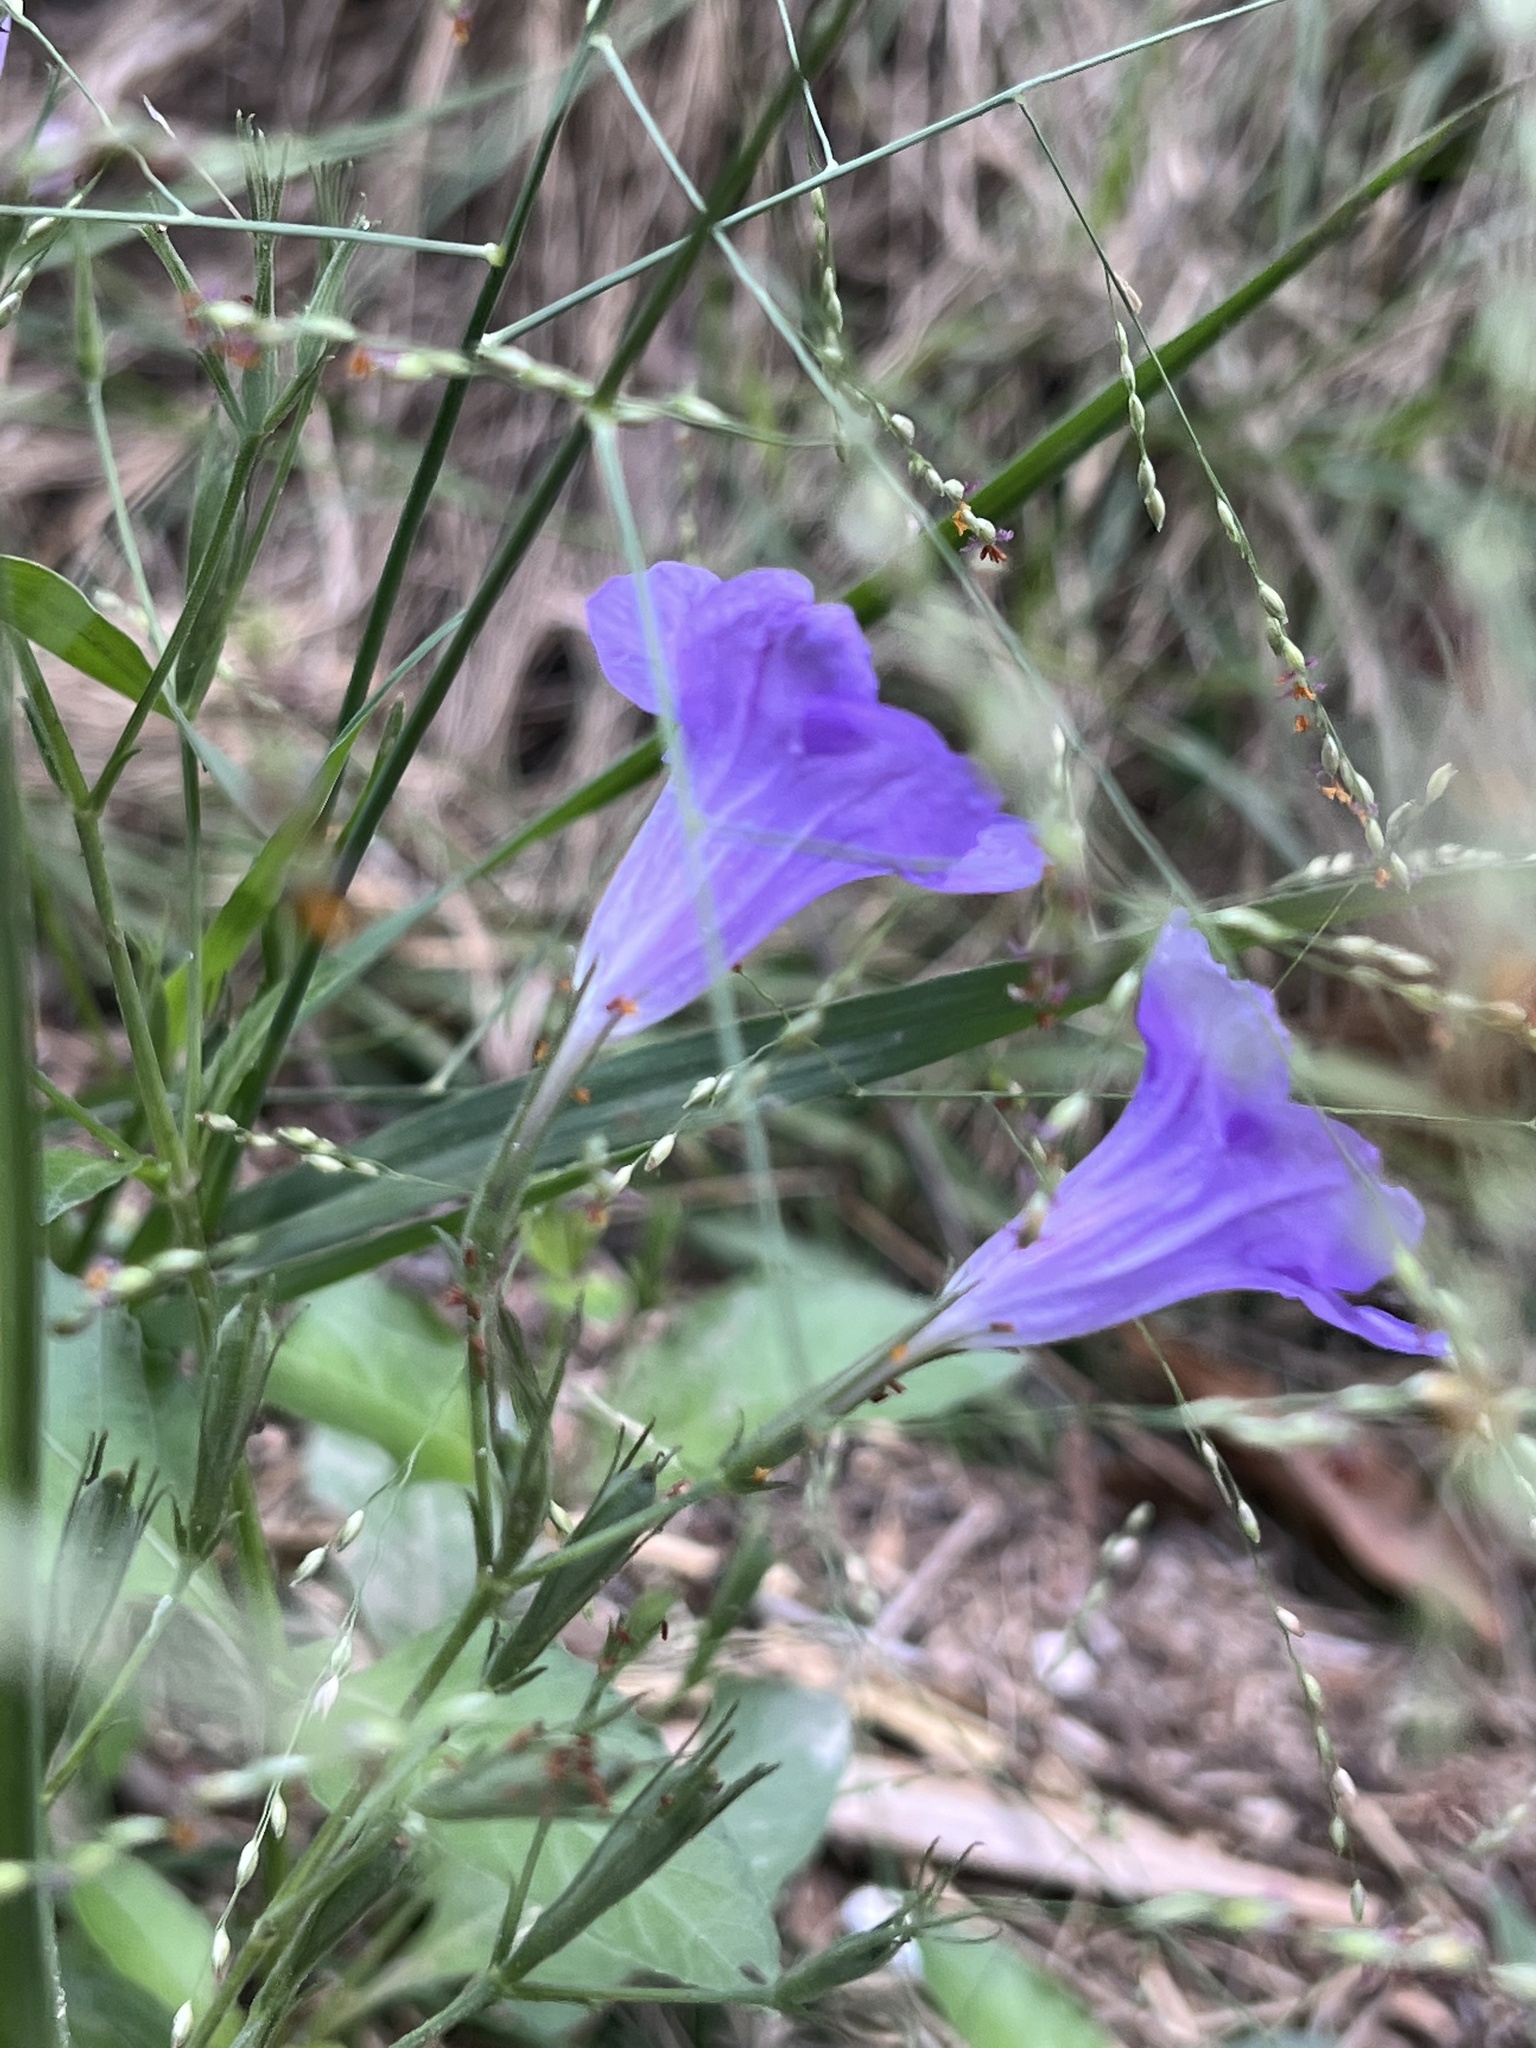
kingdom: Plantae
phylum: Tracheophyta
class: Magnoliopsida
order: Lamiales
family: Acanthaceae
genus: Ruellia
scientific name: Ruellia ciliatiflora
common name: Hairyflower wild petunia
